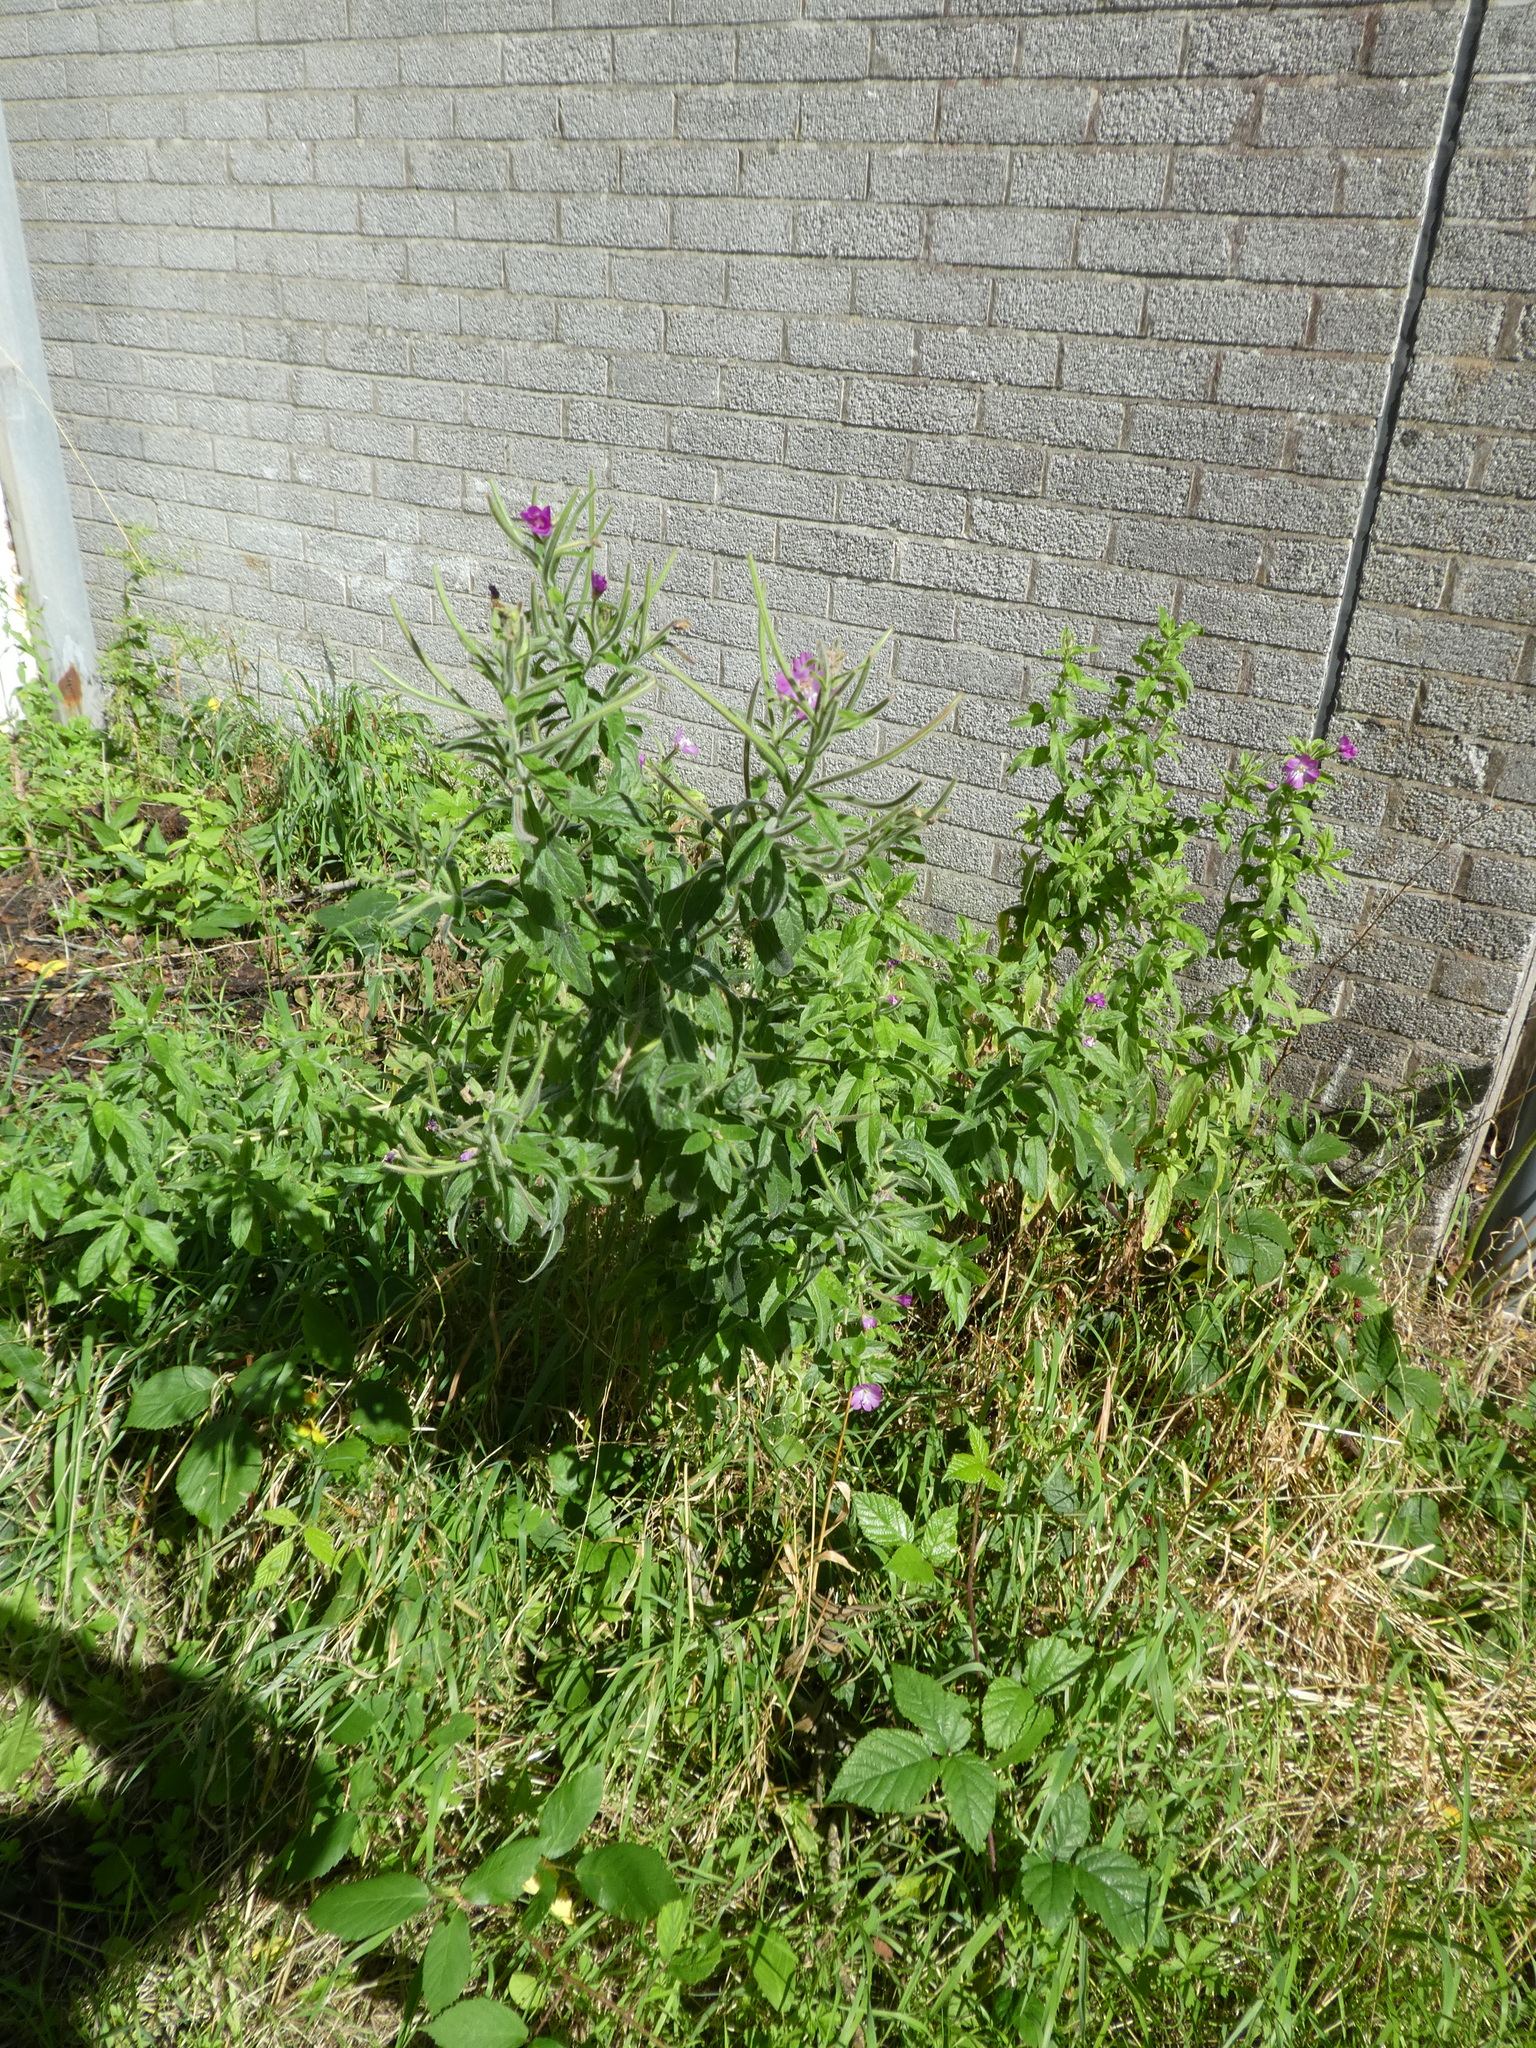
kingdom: Plantae
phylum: Tracheophyta
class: Magnoliopsida
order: Myrtales
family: Onagraceae
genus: Epilobium
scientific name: Epilobium hirsutum
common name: Great willowherb
